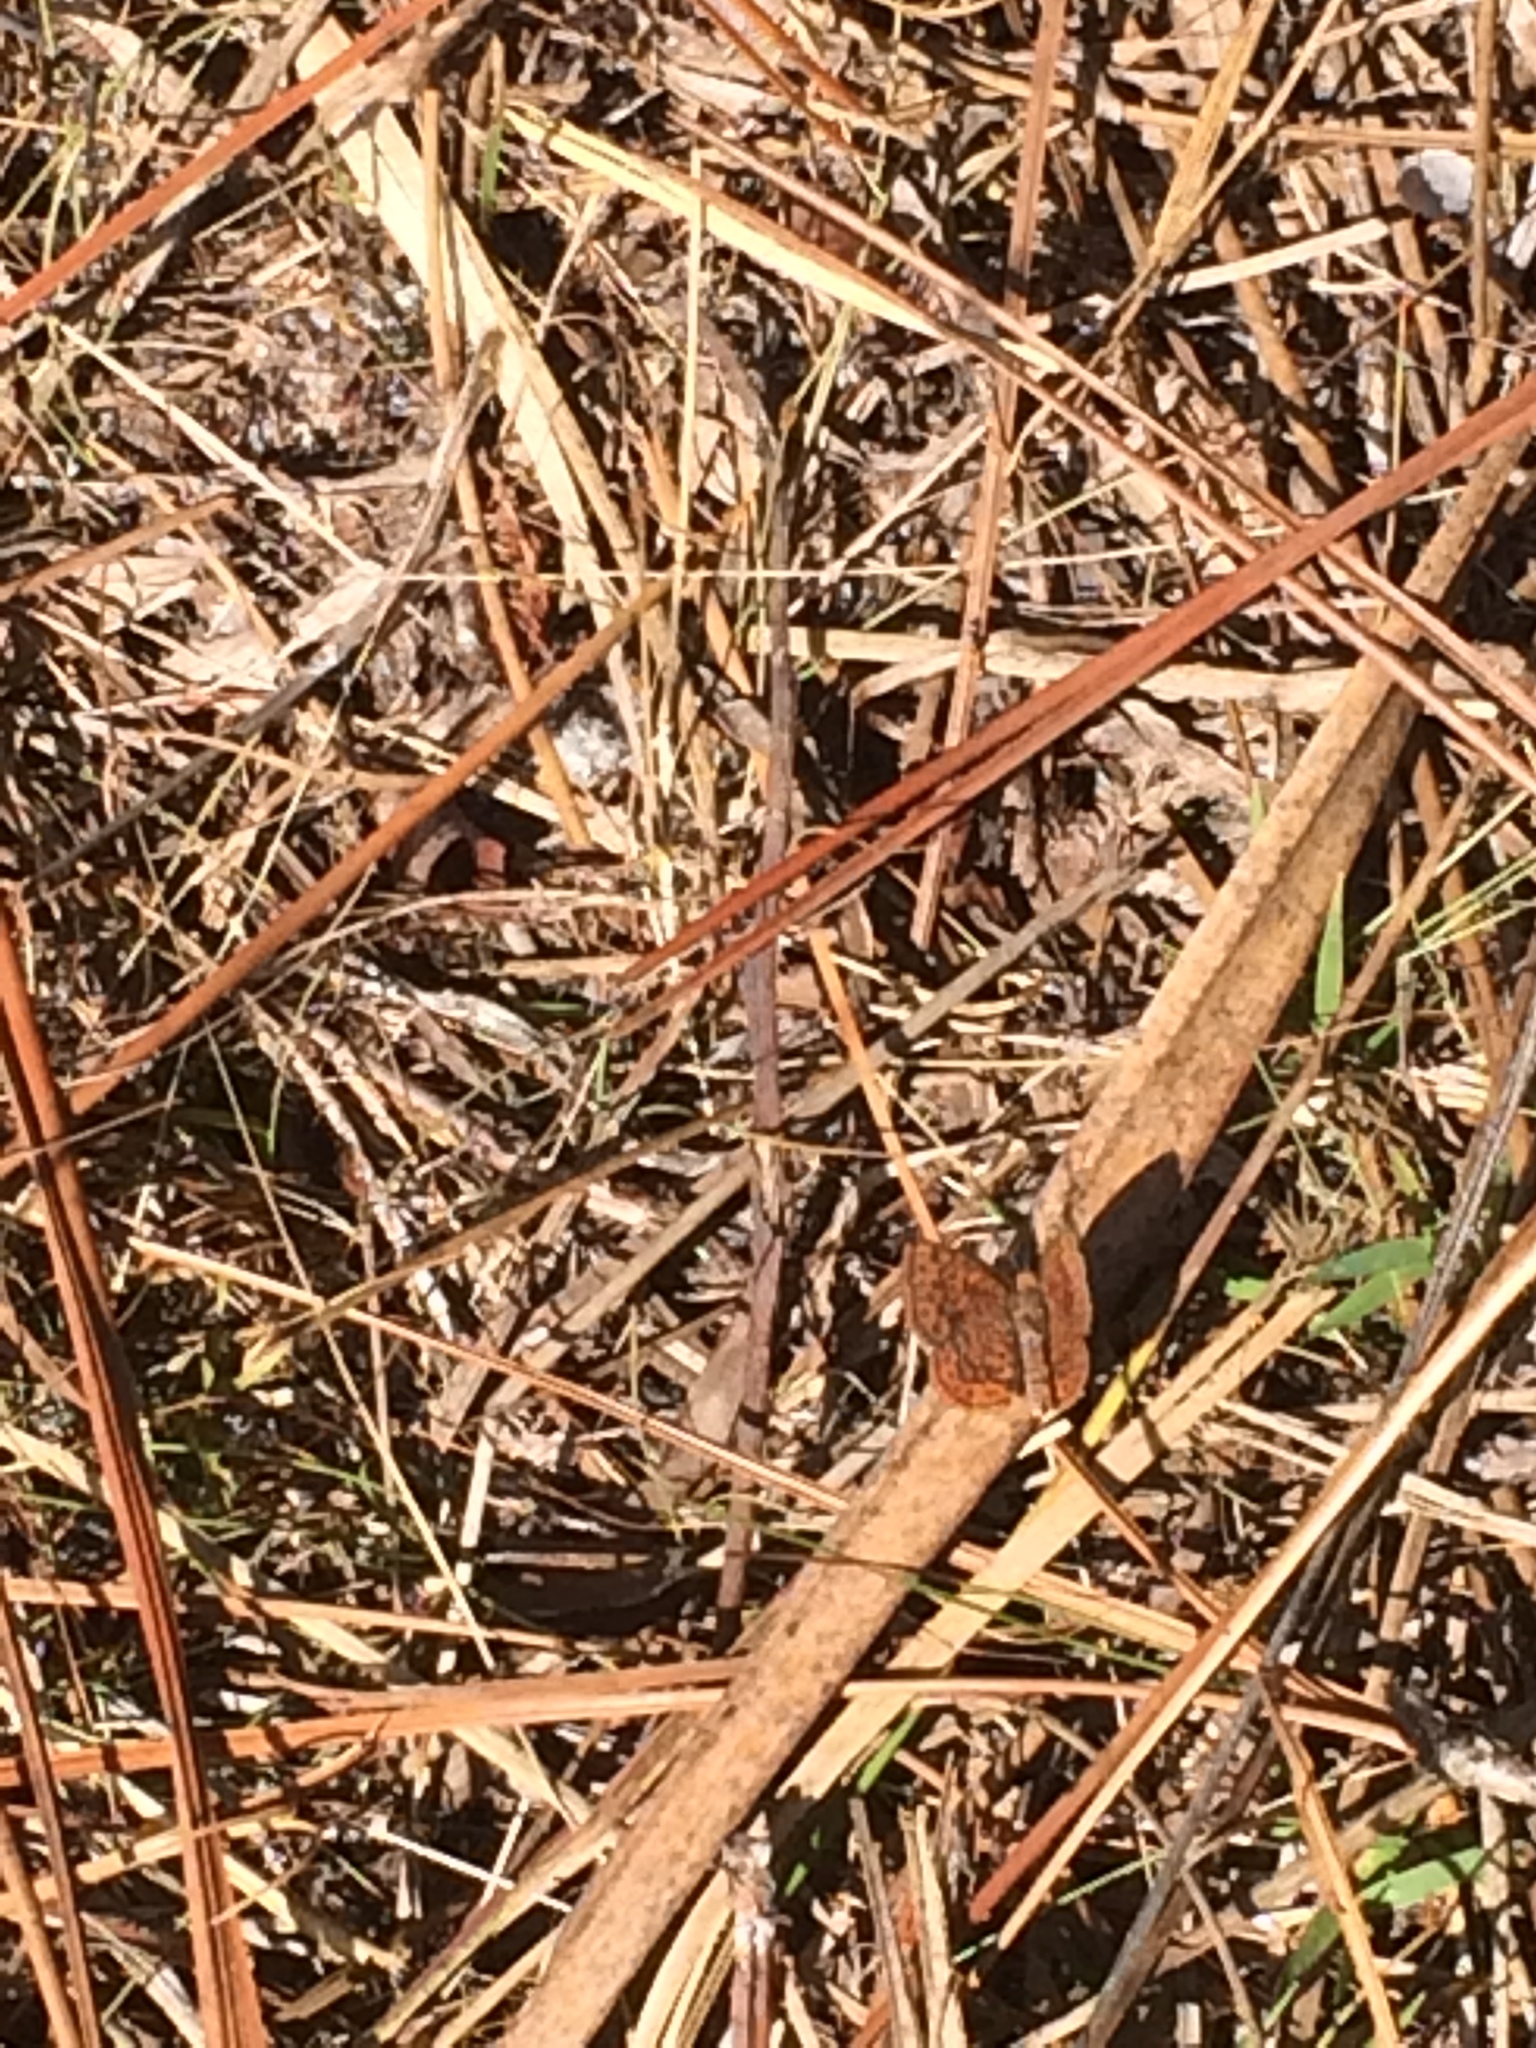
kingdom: Animalia
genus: Calephelis
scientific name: Calephelis virginiensis
